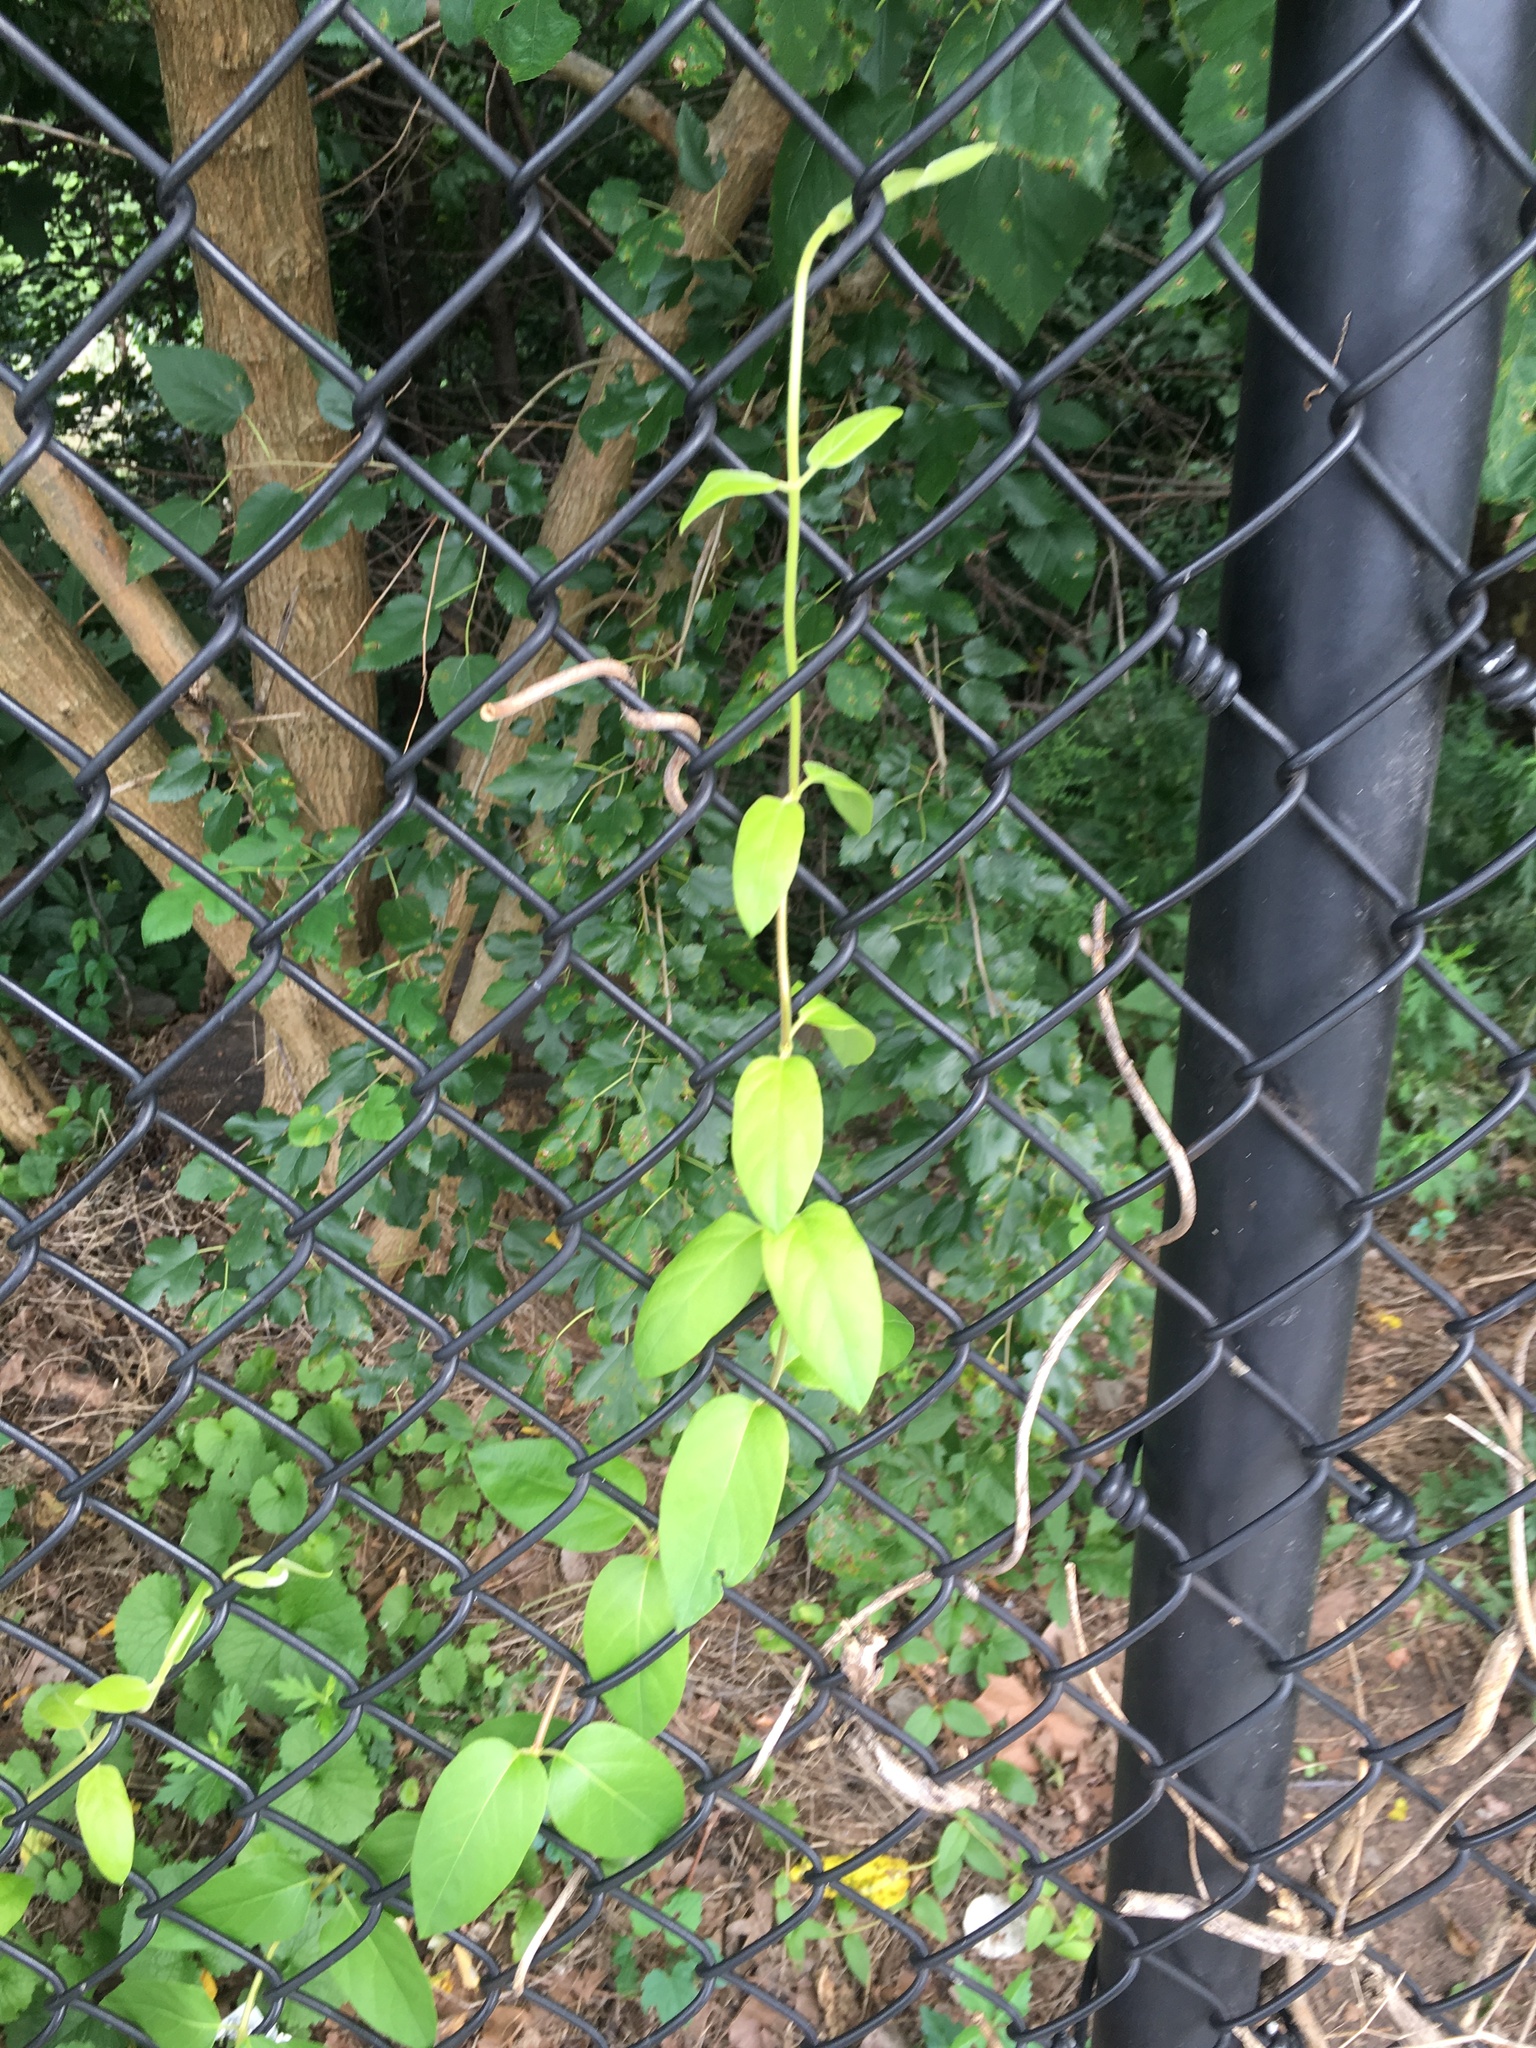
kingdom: Plantae
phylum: Tracheophyta
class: Magnoliopsida
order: Dipsacales
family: Caprifoliaceae
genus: Lonicera
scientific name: Lonicera japonica
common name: Japanese honeysuckle
